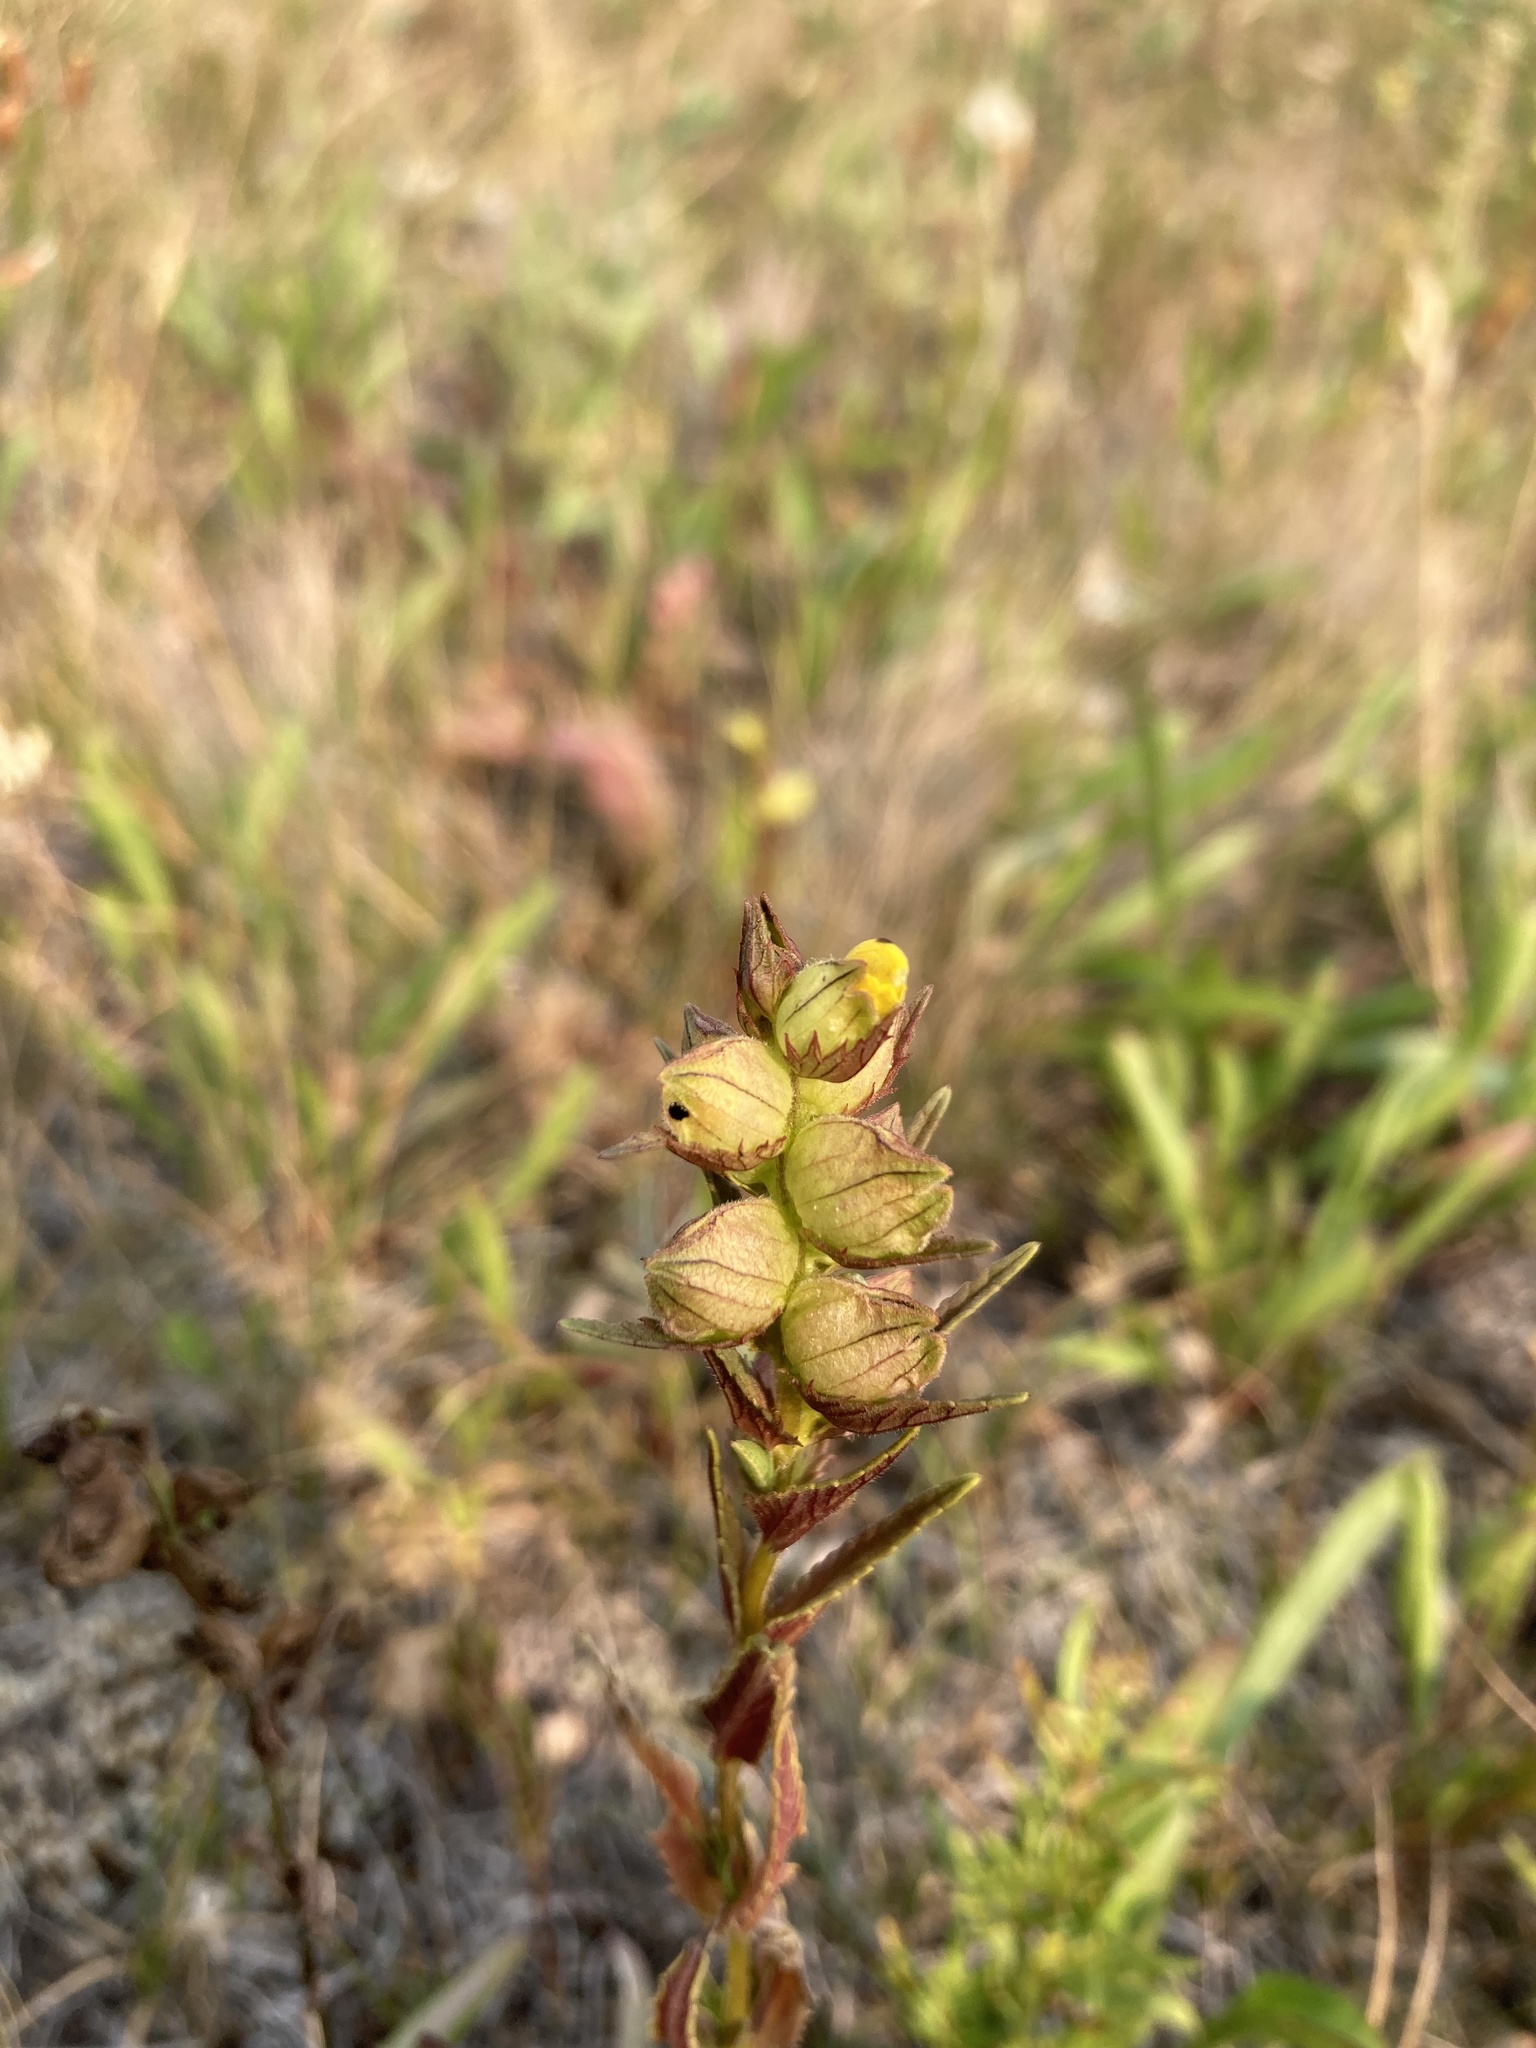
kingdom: Plantae
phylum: Tracheophyta
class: Magnoliopsida
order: Lamiales
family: Orobanchaceae
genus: Rhinanthus
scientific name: Rhinanthus groenlandicus
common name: Little yellow rattle
